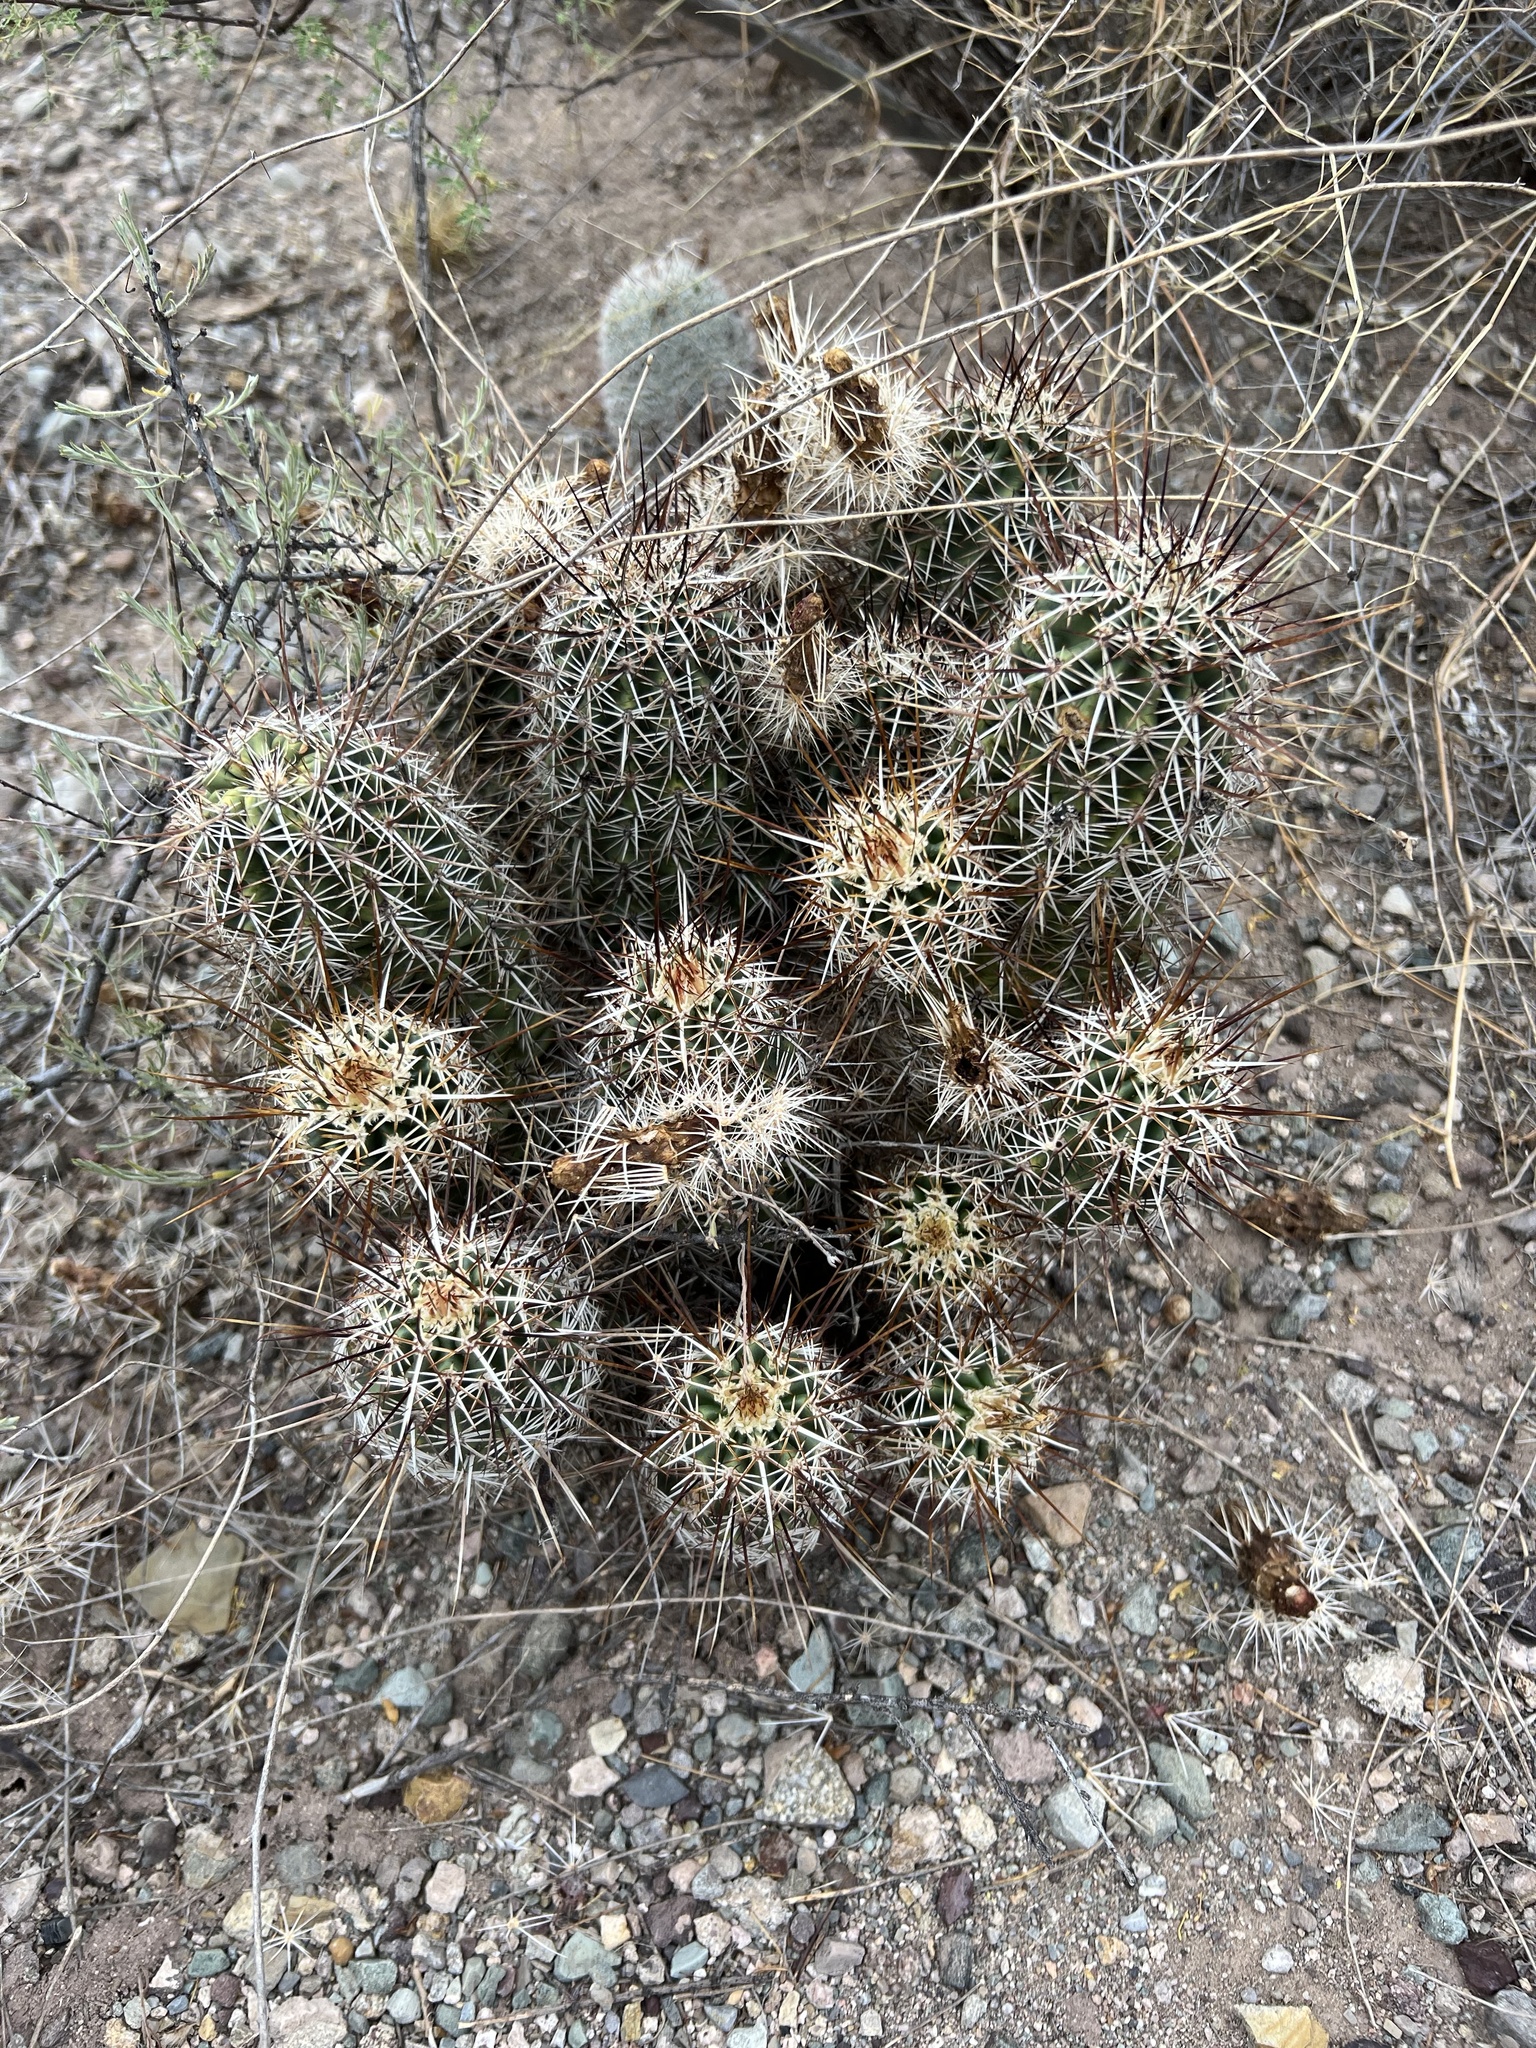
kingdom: Plantae
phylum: Tracheophyta
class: Magnoliopsida
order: Caryophyllales
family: Cactaceae
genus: Echinocereus
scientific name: Echinocereus fasciculatus
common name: Bundle hedgehog
